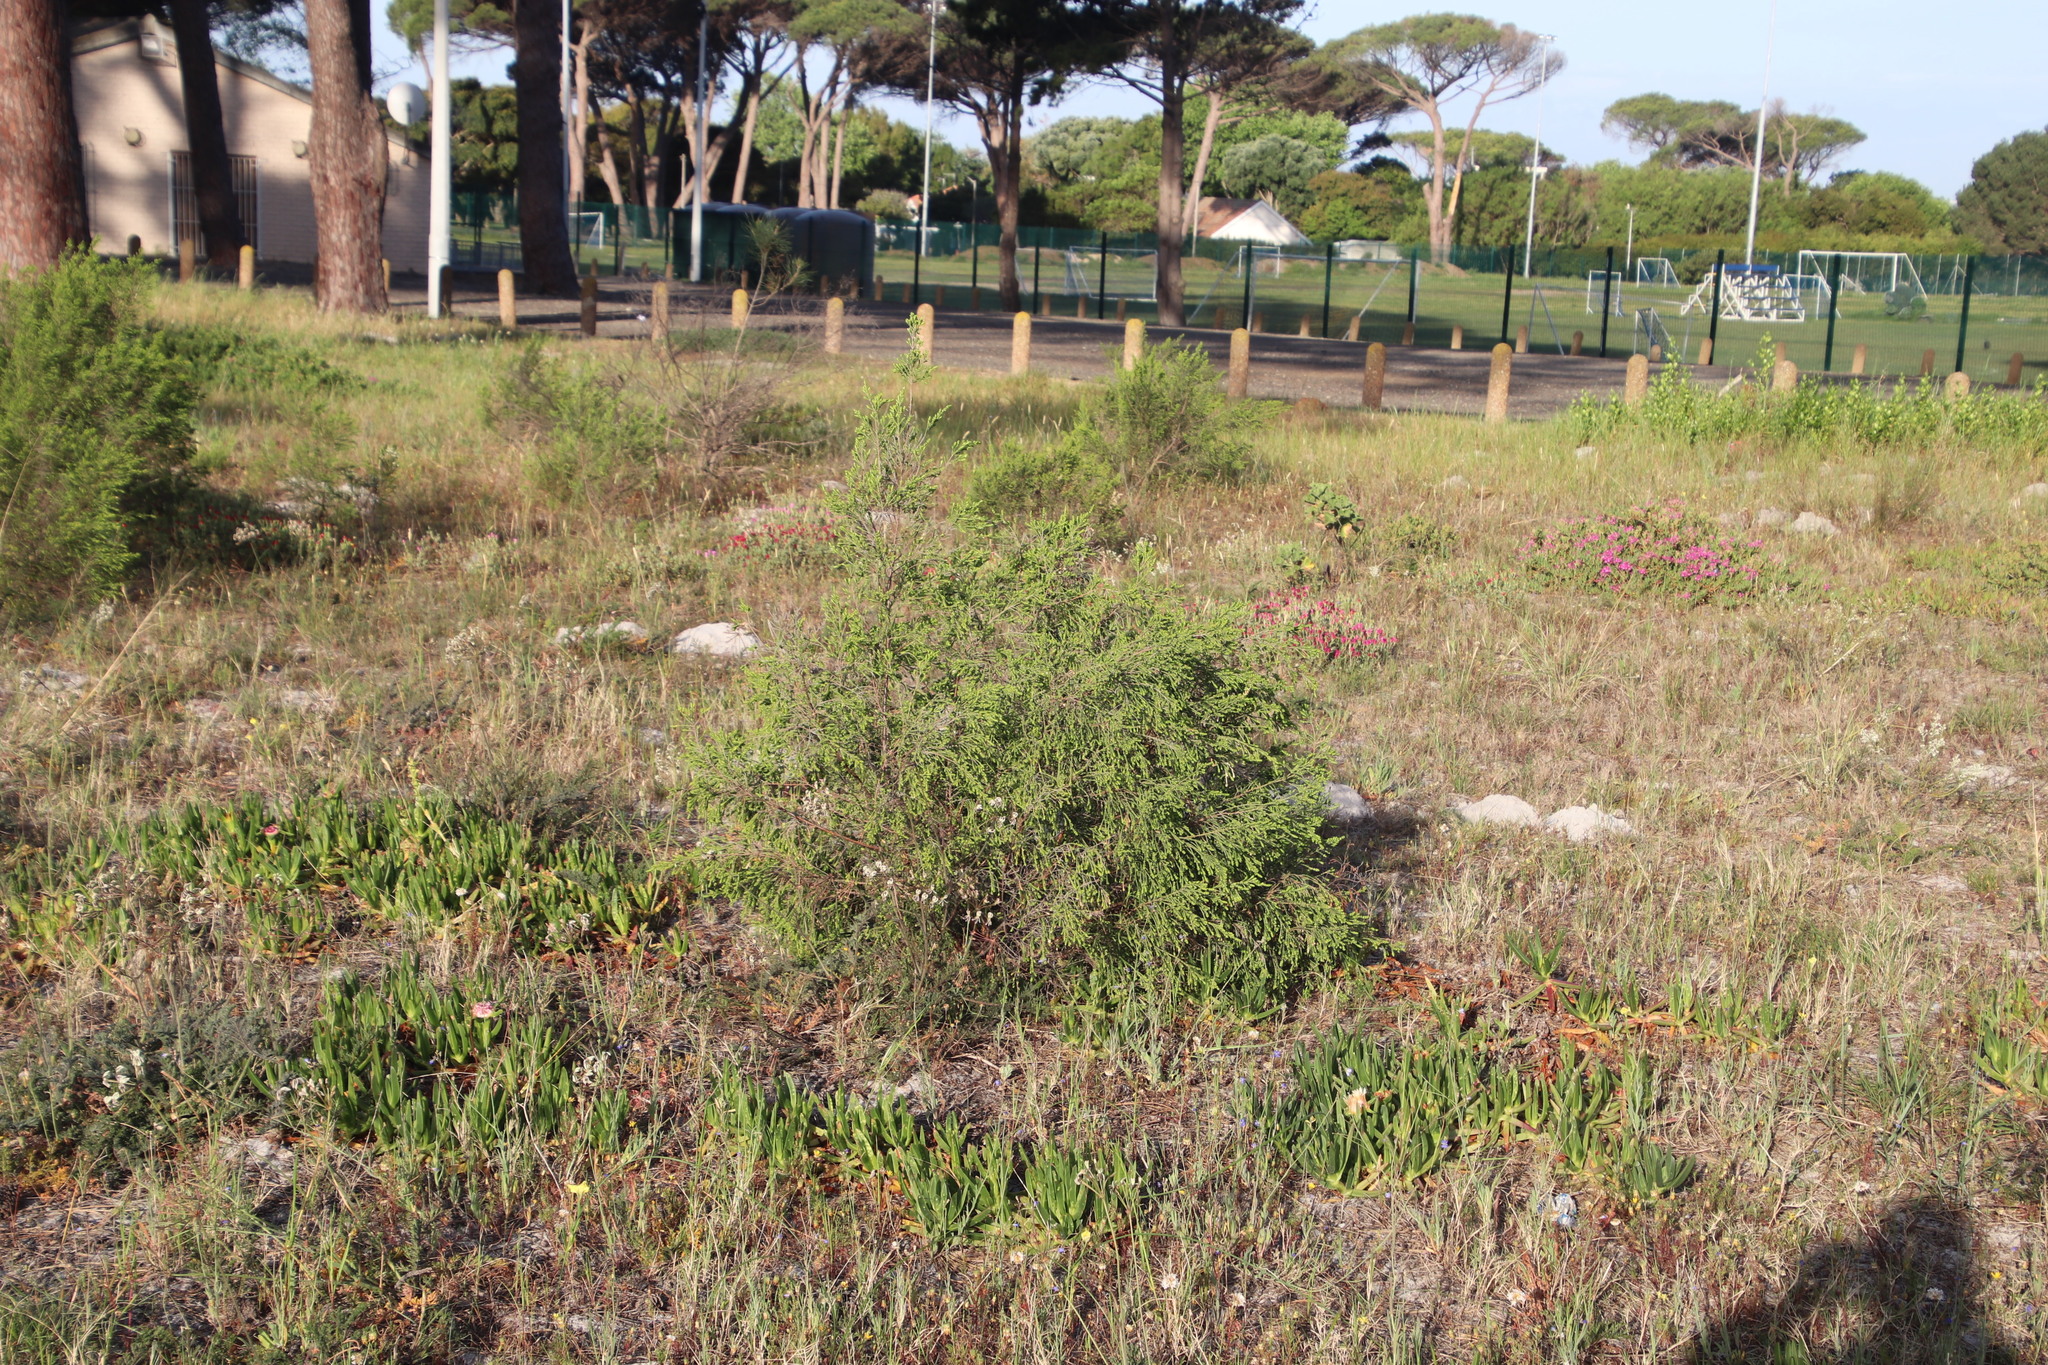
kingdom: Plantae
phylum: Tracheophyta
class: Magnoliopsida
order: Malvales
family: Thymelaeaceae
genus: Passerina
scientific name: Passerina corymbosa
